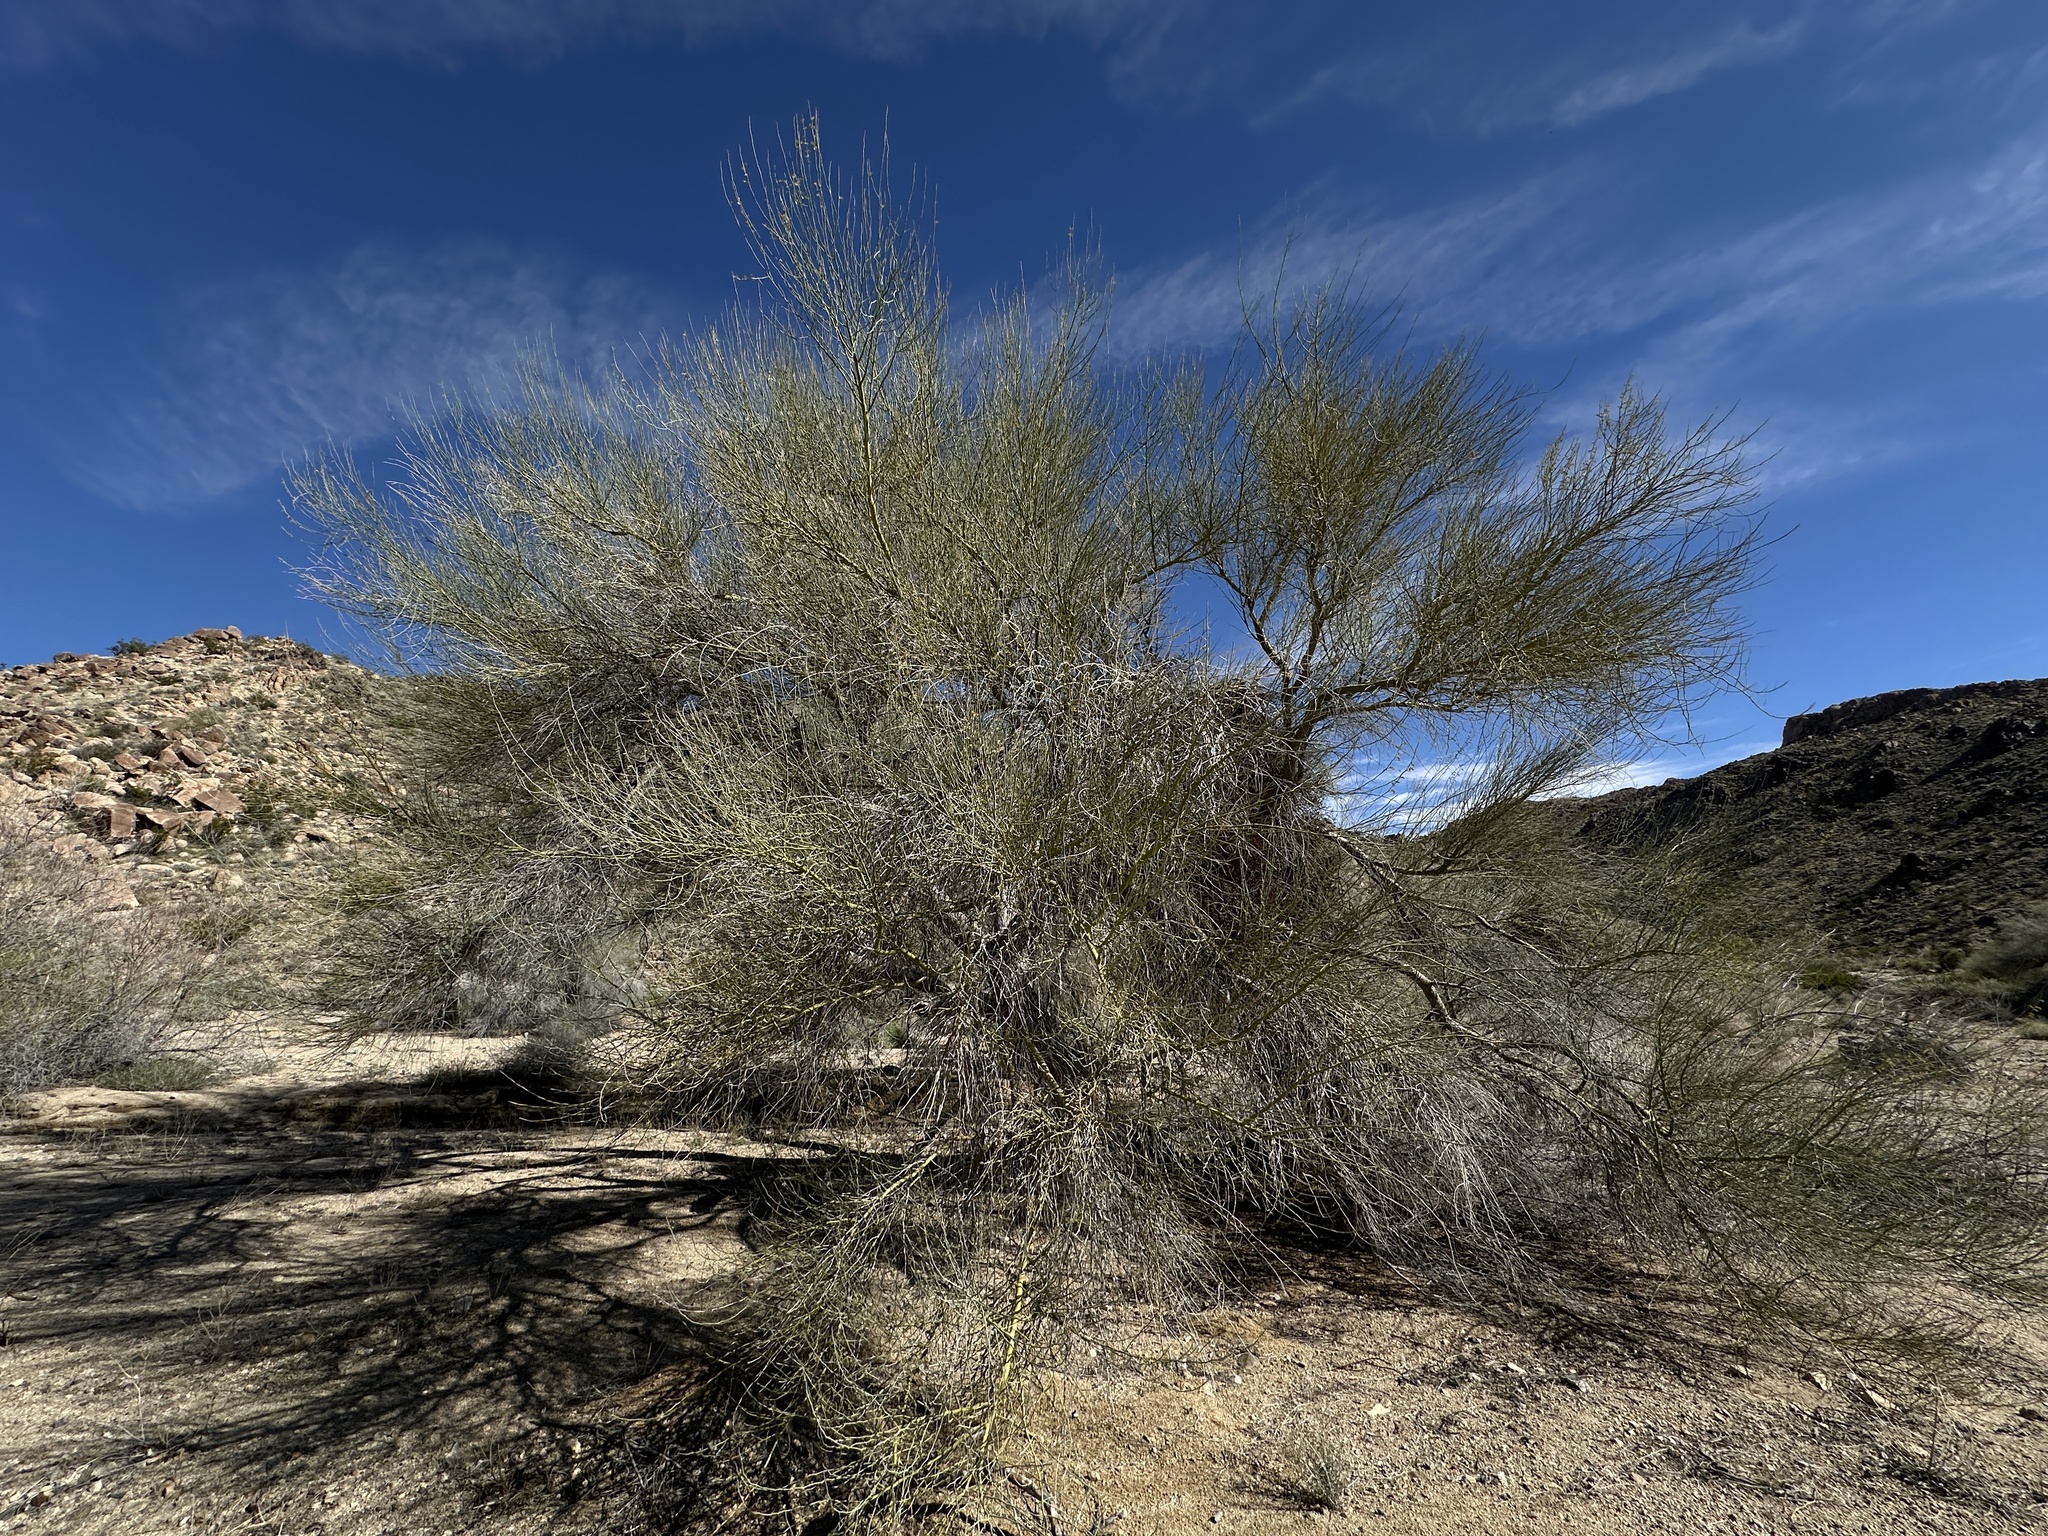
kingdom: Plantae
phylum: Tracheophyta
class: Magnoliopsida
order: Fabales
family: Fabaceae
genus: Parkinsonia
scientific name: Parkinsonia florida
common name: Blue paloverde
